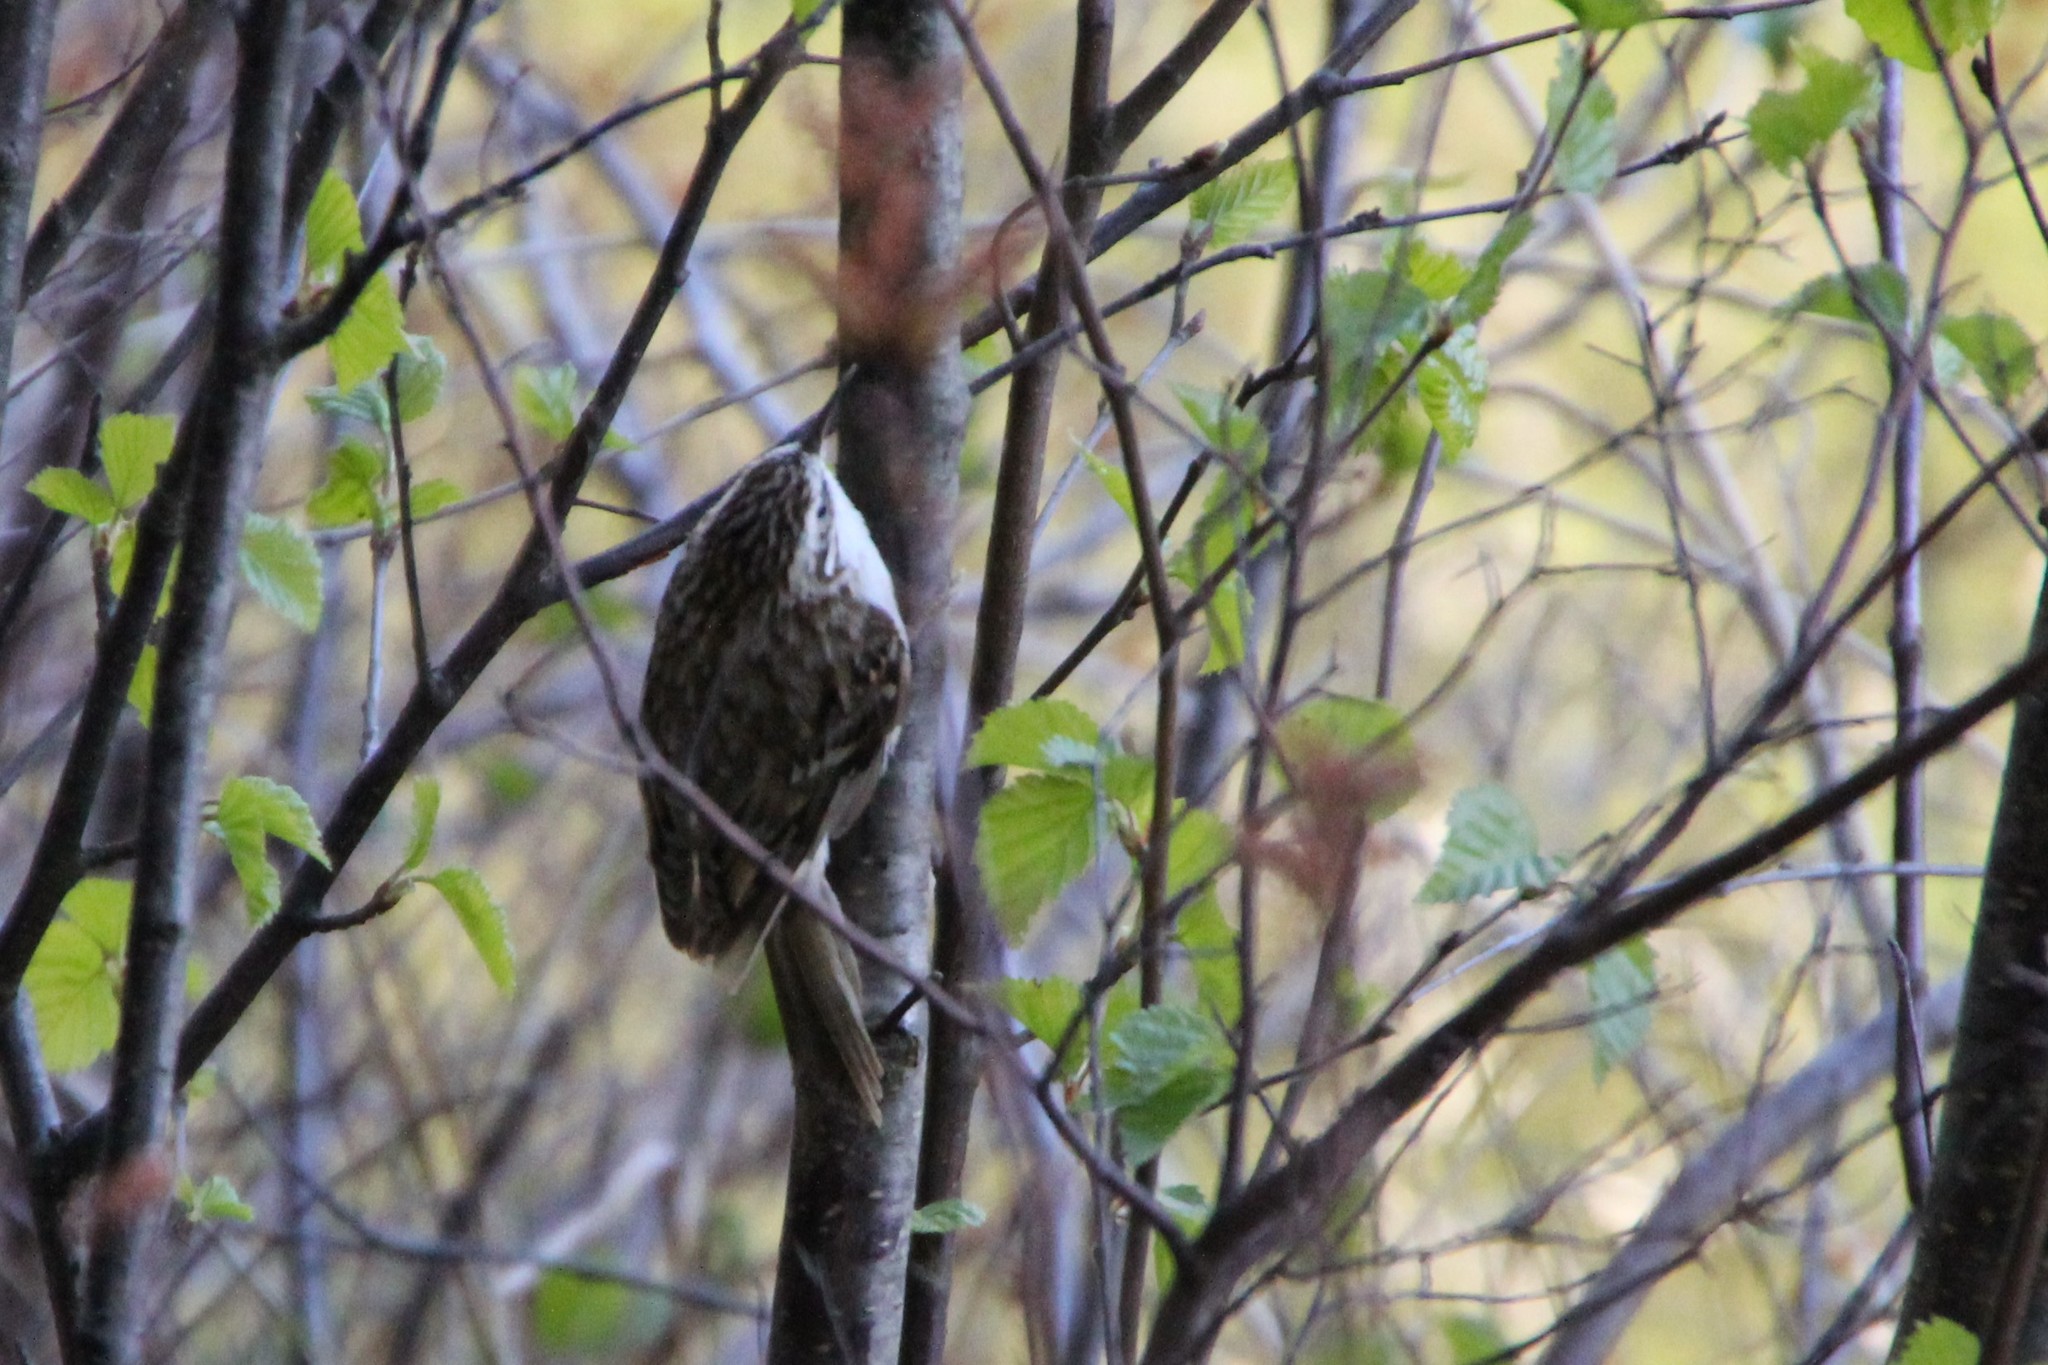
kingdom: Animalia
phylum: Chordata
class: Aves
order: Passeriformes
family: Certhiidae
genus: Certhia
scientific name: Certhia familiaris
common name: Eurasian treecreeper
